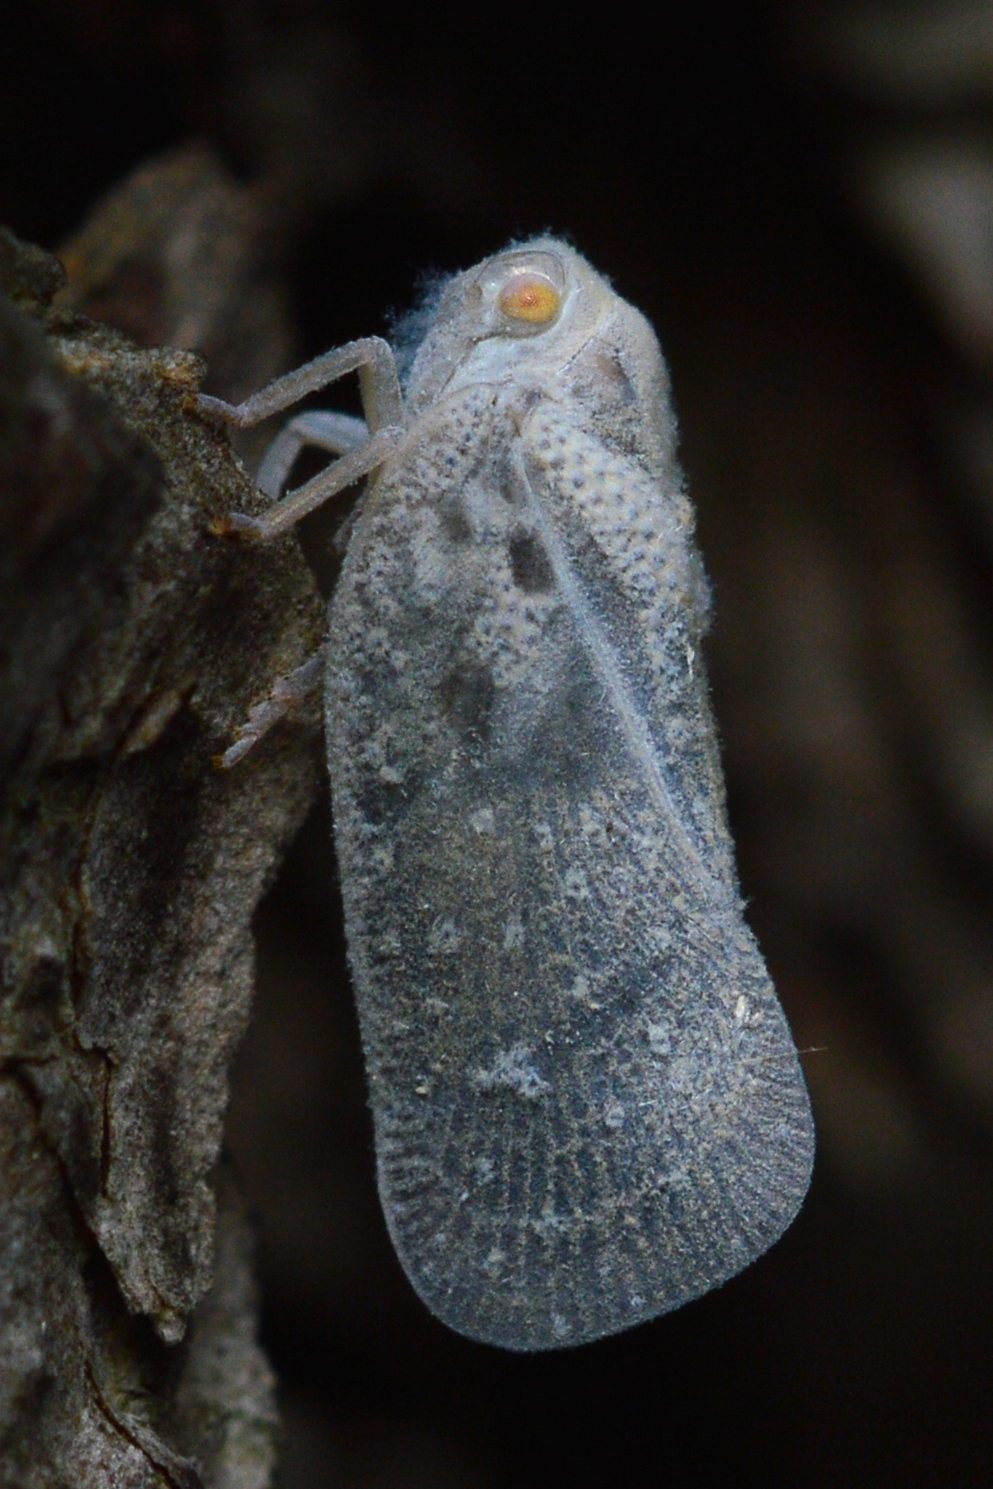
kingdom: Animalia
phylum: Arthropoda
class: Insecta
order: Hemiptera
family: Flatidae
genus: Metcalfa
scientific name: Metcalfa pruinosa
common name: Citrus flatid planthopper
